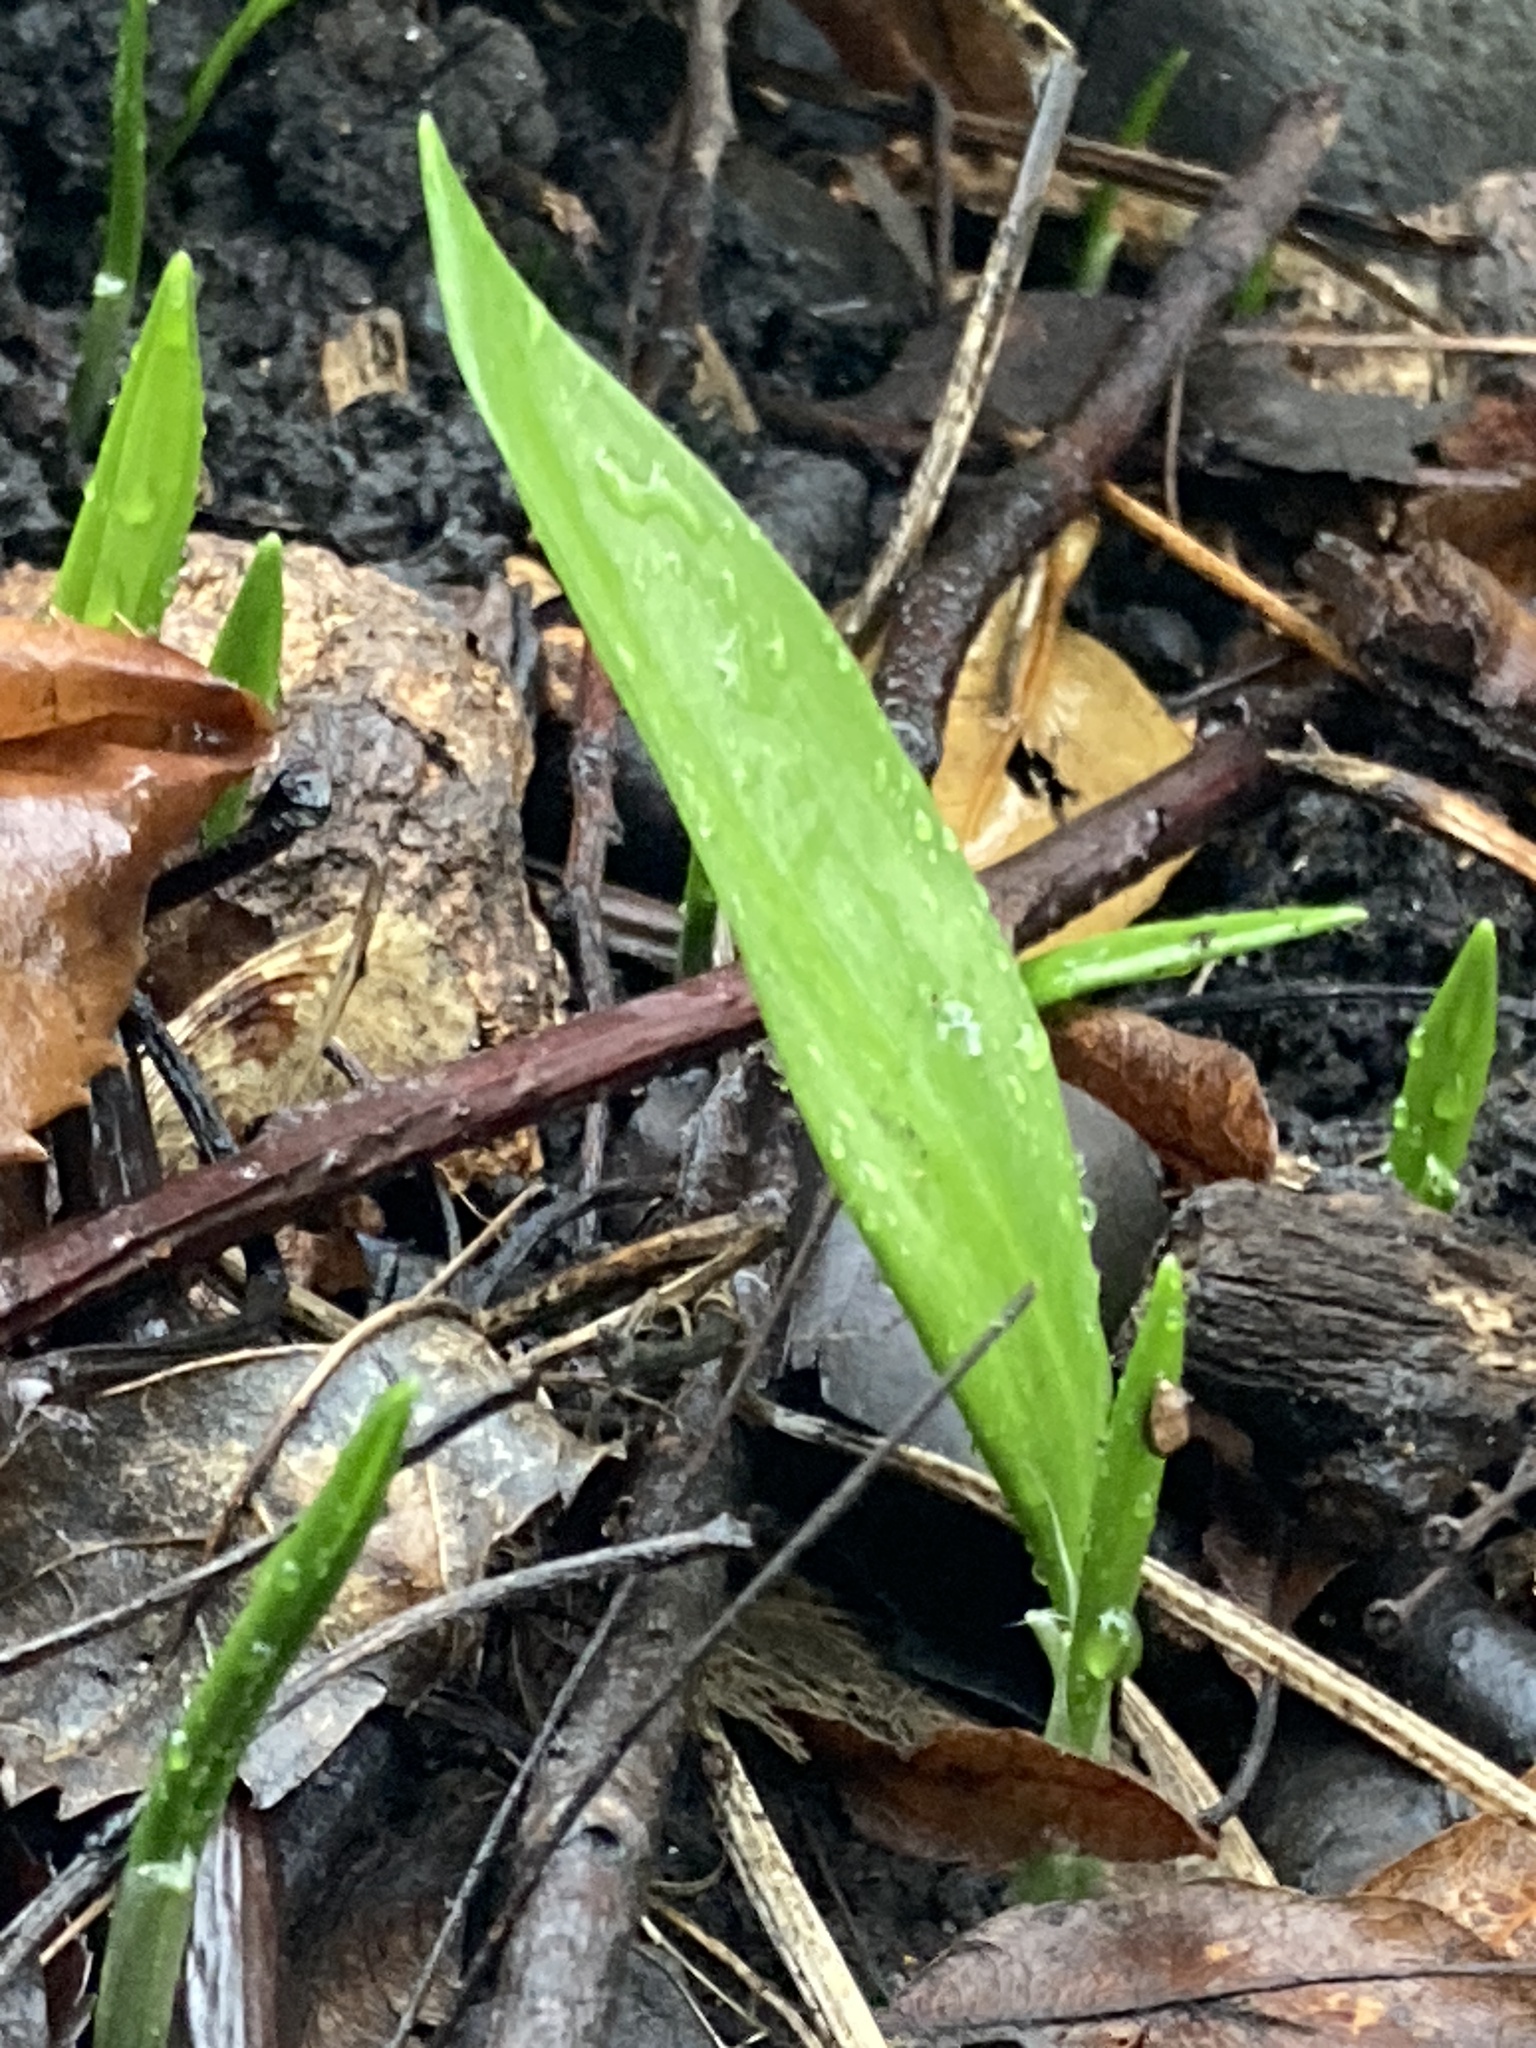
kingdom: Plantae
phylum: Tracheophyta
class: Liliopsida
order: Asparagales
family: Amaryllidaceae
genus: Allium
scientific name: Allium ursinum
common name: Ramsons
